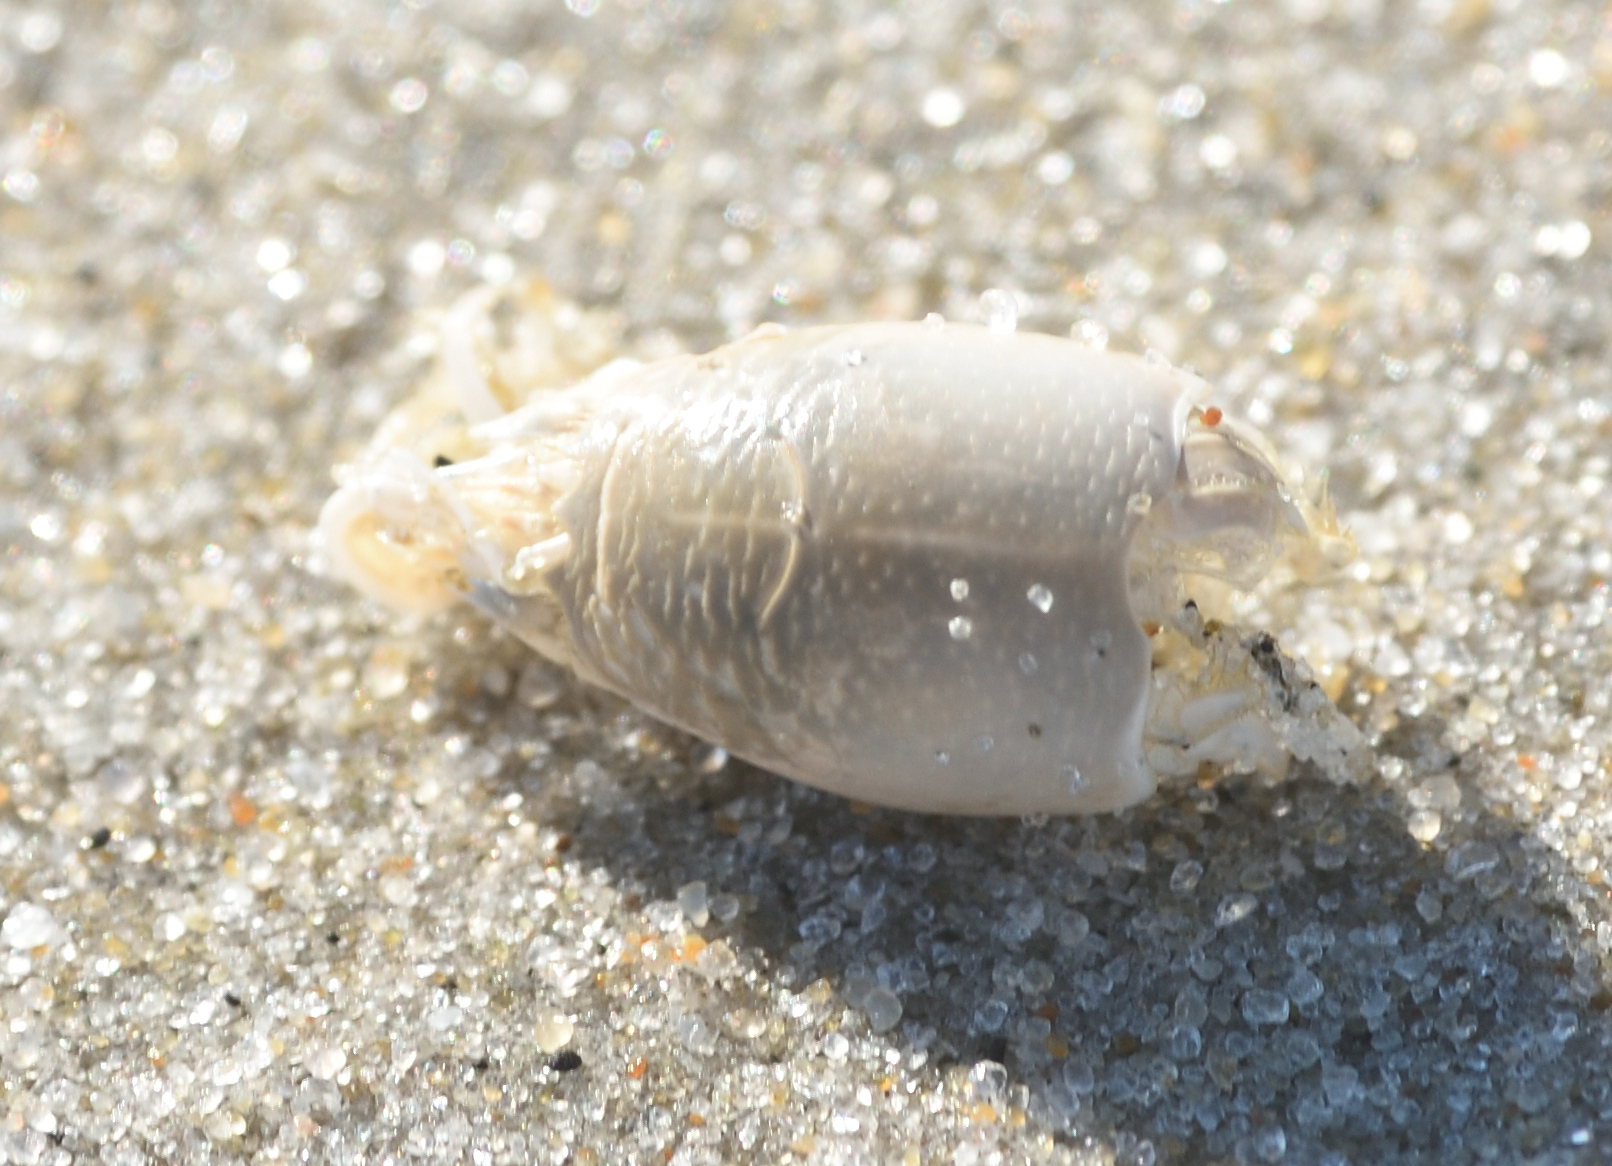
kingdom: Animalia
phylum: Arthropoda
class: Malacostraca
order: Decapoda
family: Hippidae
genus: Emerita
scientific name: Emerita talpoida
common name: Atlantic sand crab
